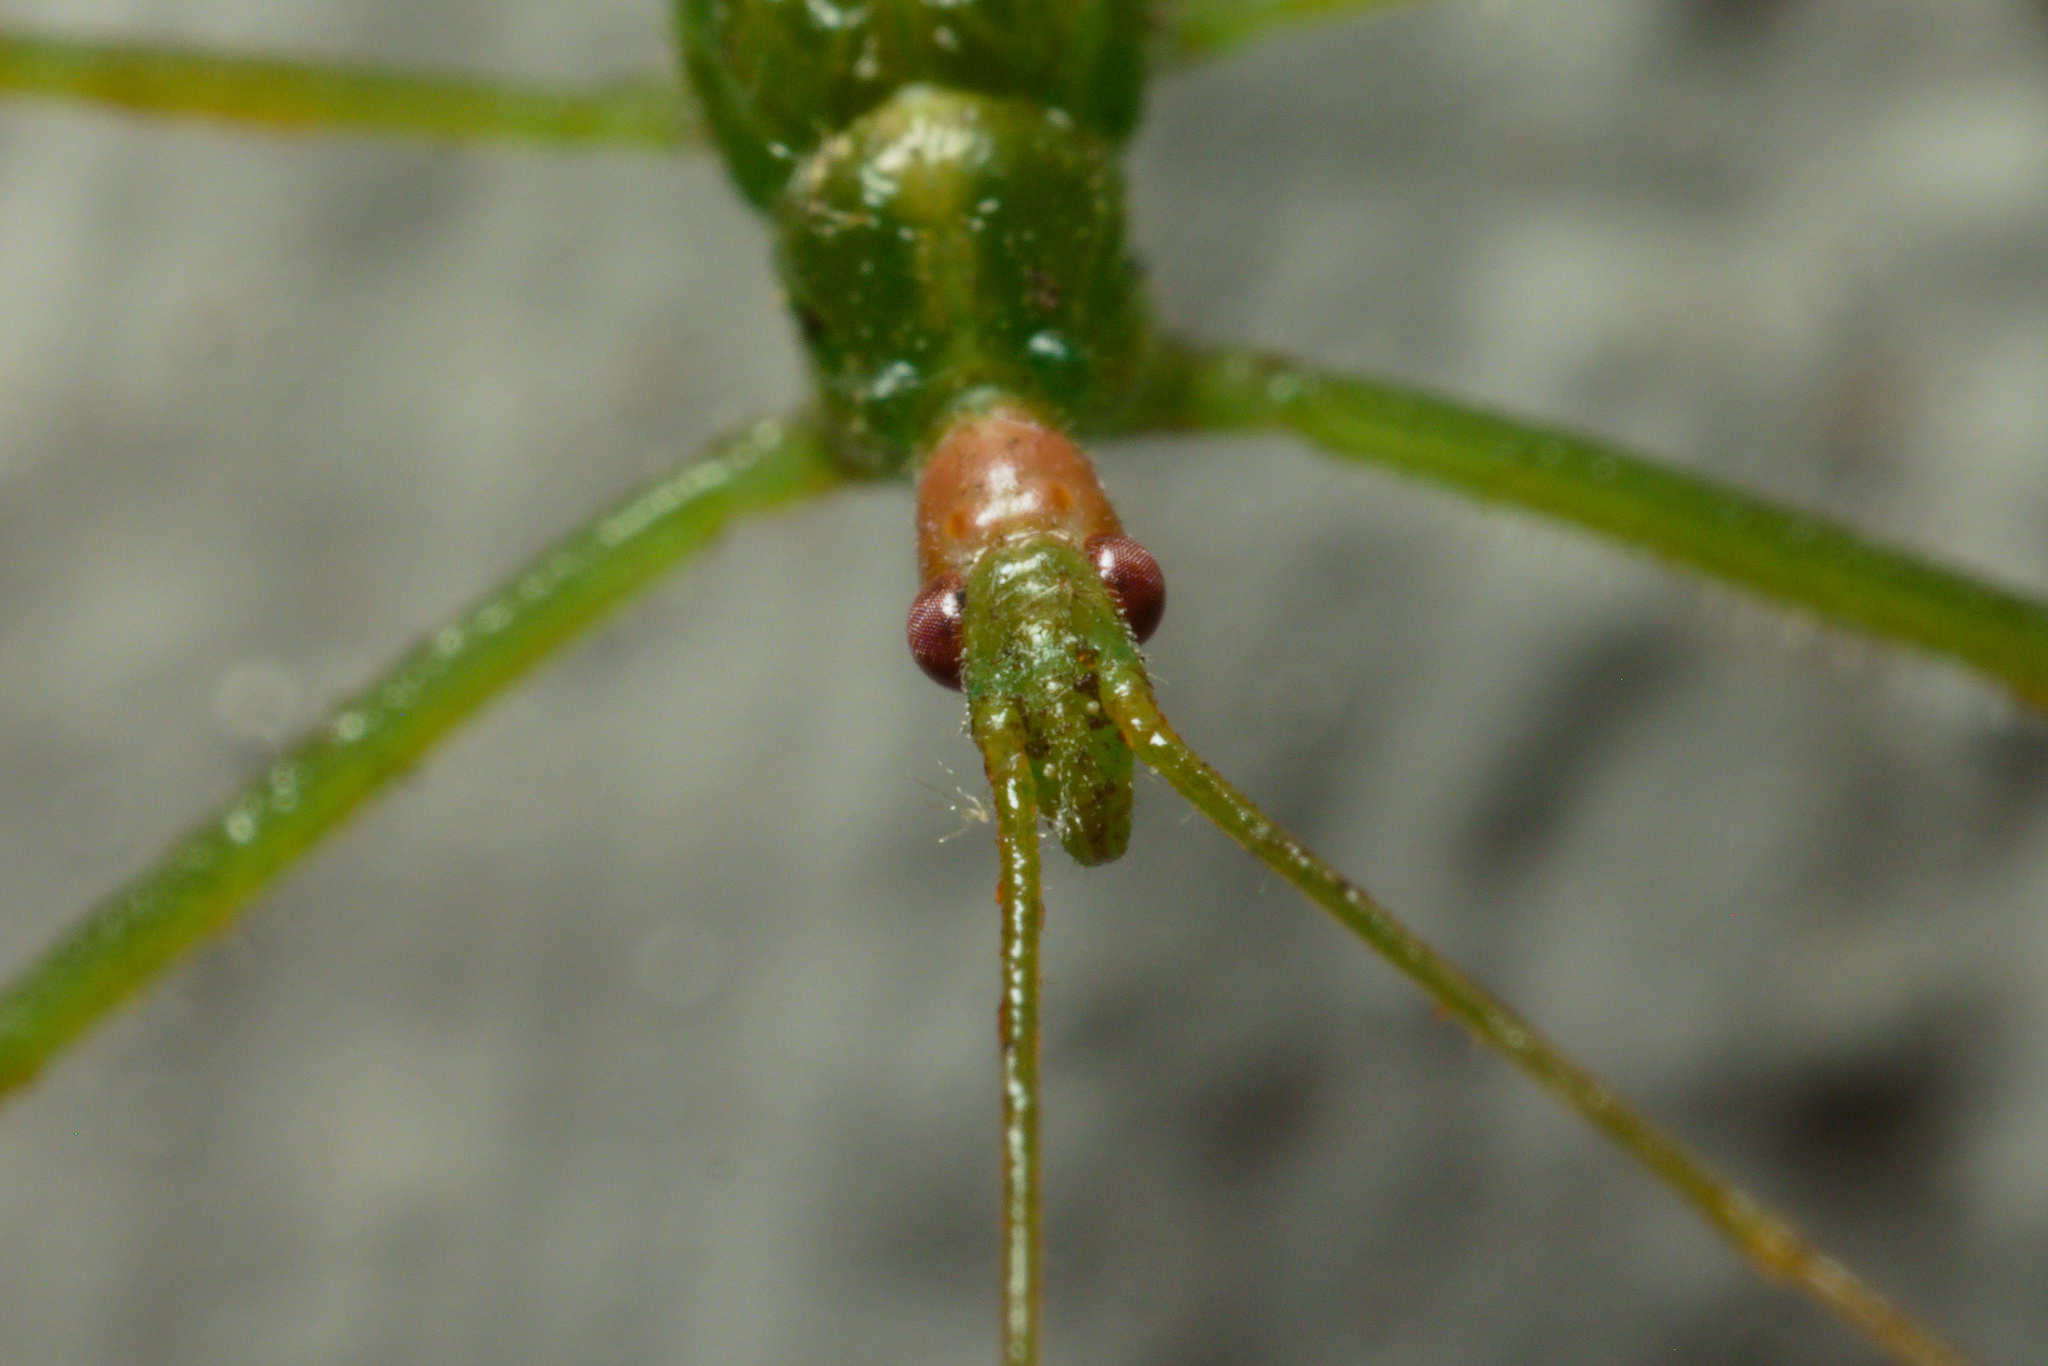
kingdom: Animalia
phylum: Arthropoda
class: Insecta
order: Hemiptera
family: Reduviidae
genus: Zelus
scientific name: Zelus luridus
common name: Pale green assassin bug
